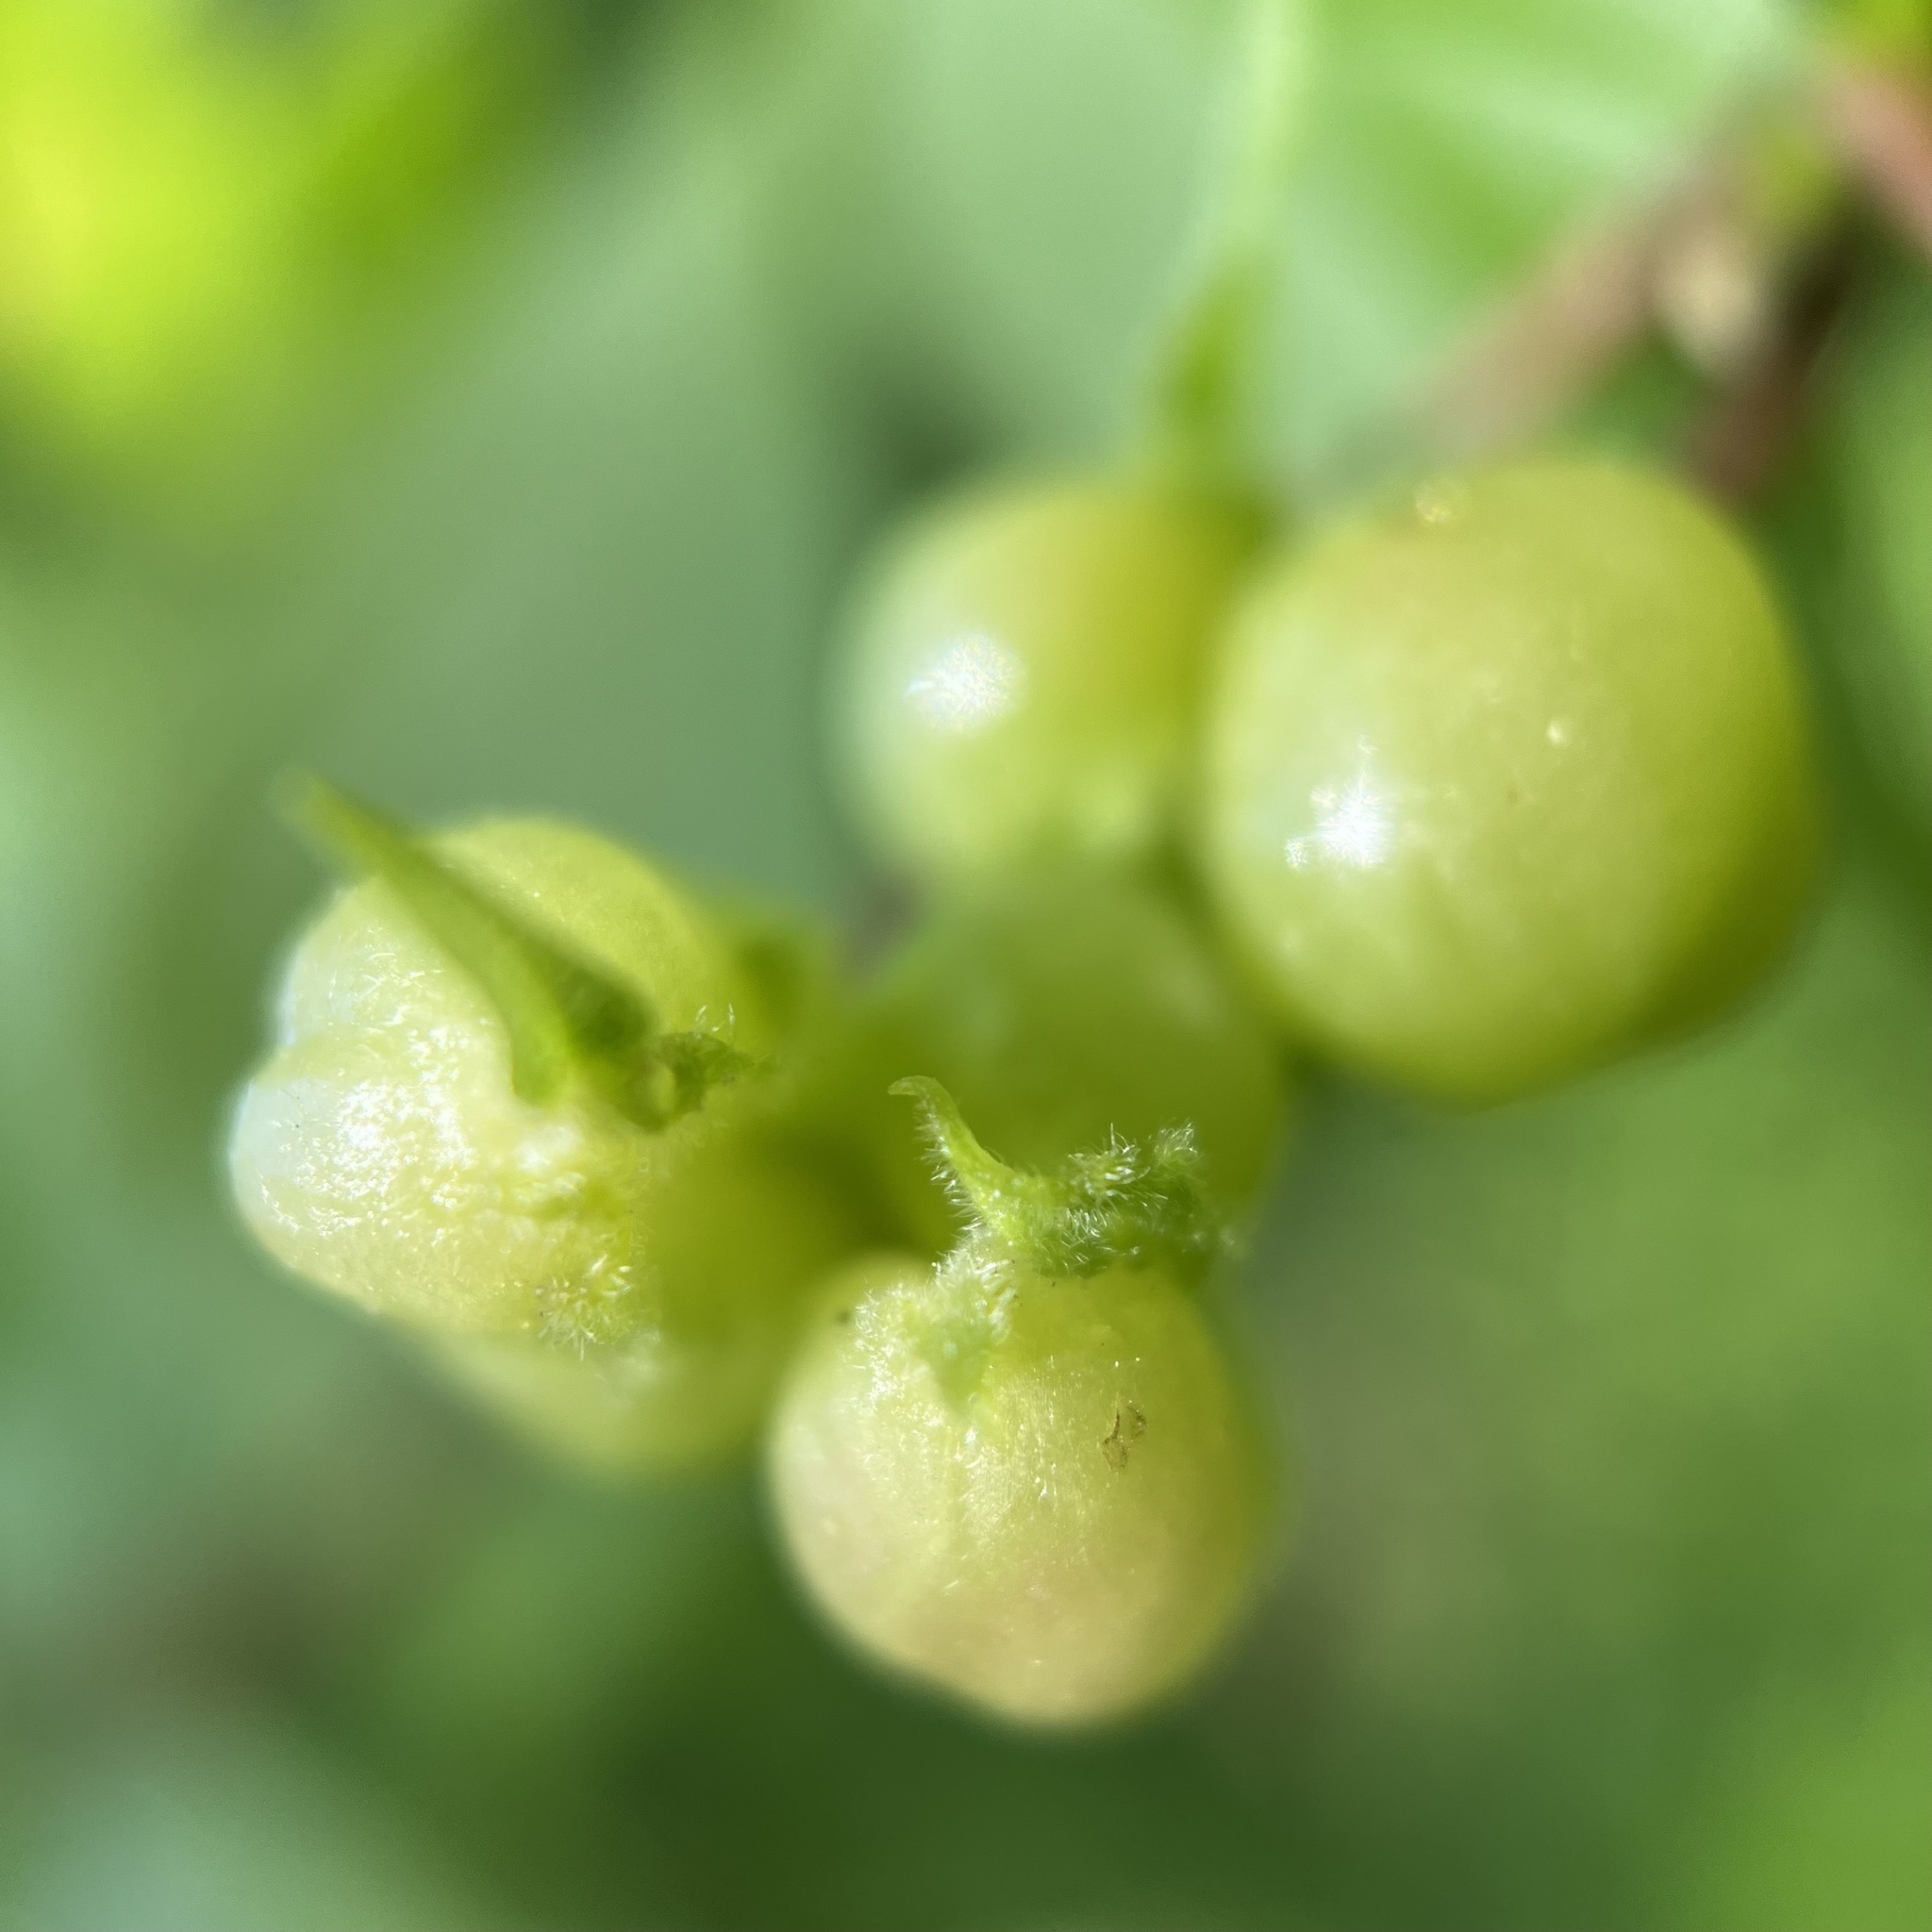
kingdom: Animalia
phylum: Arthropoda
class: Insecta
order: Diptera
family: Cecidomyiidae
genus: Contarinia
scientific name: Contarinia negundinis
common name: Boxelder budgall midge
